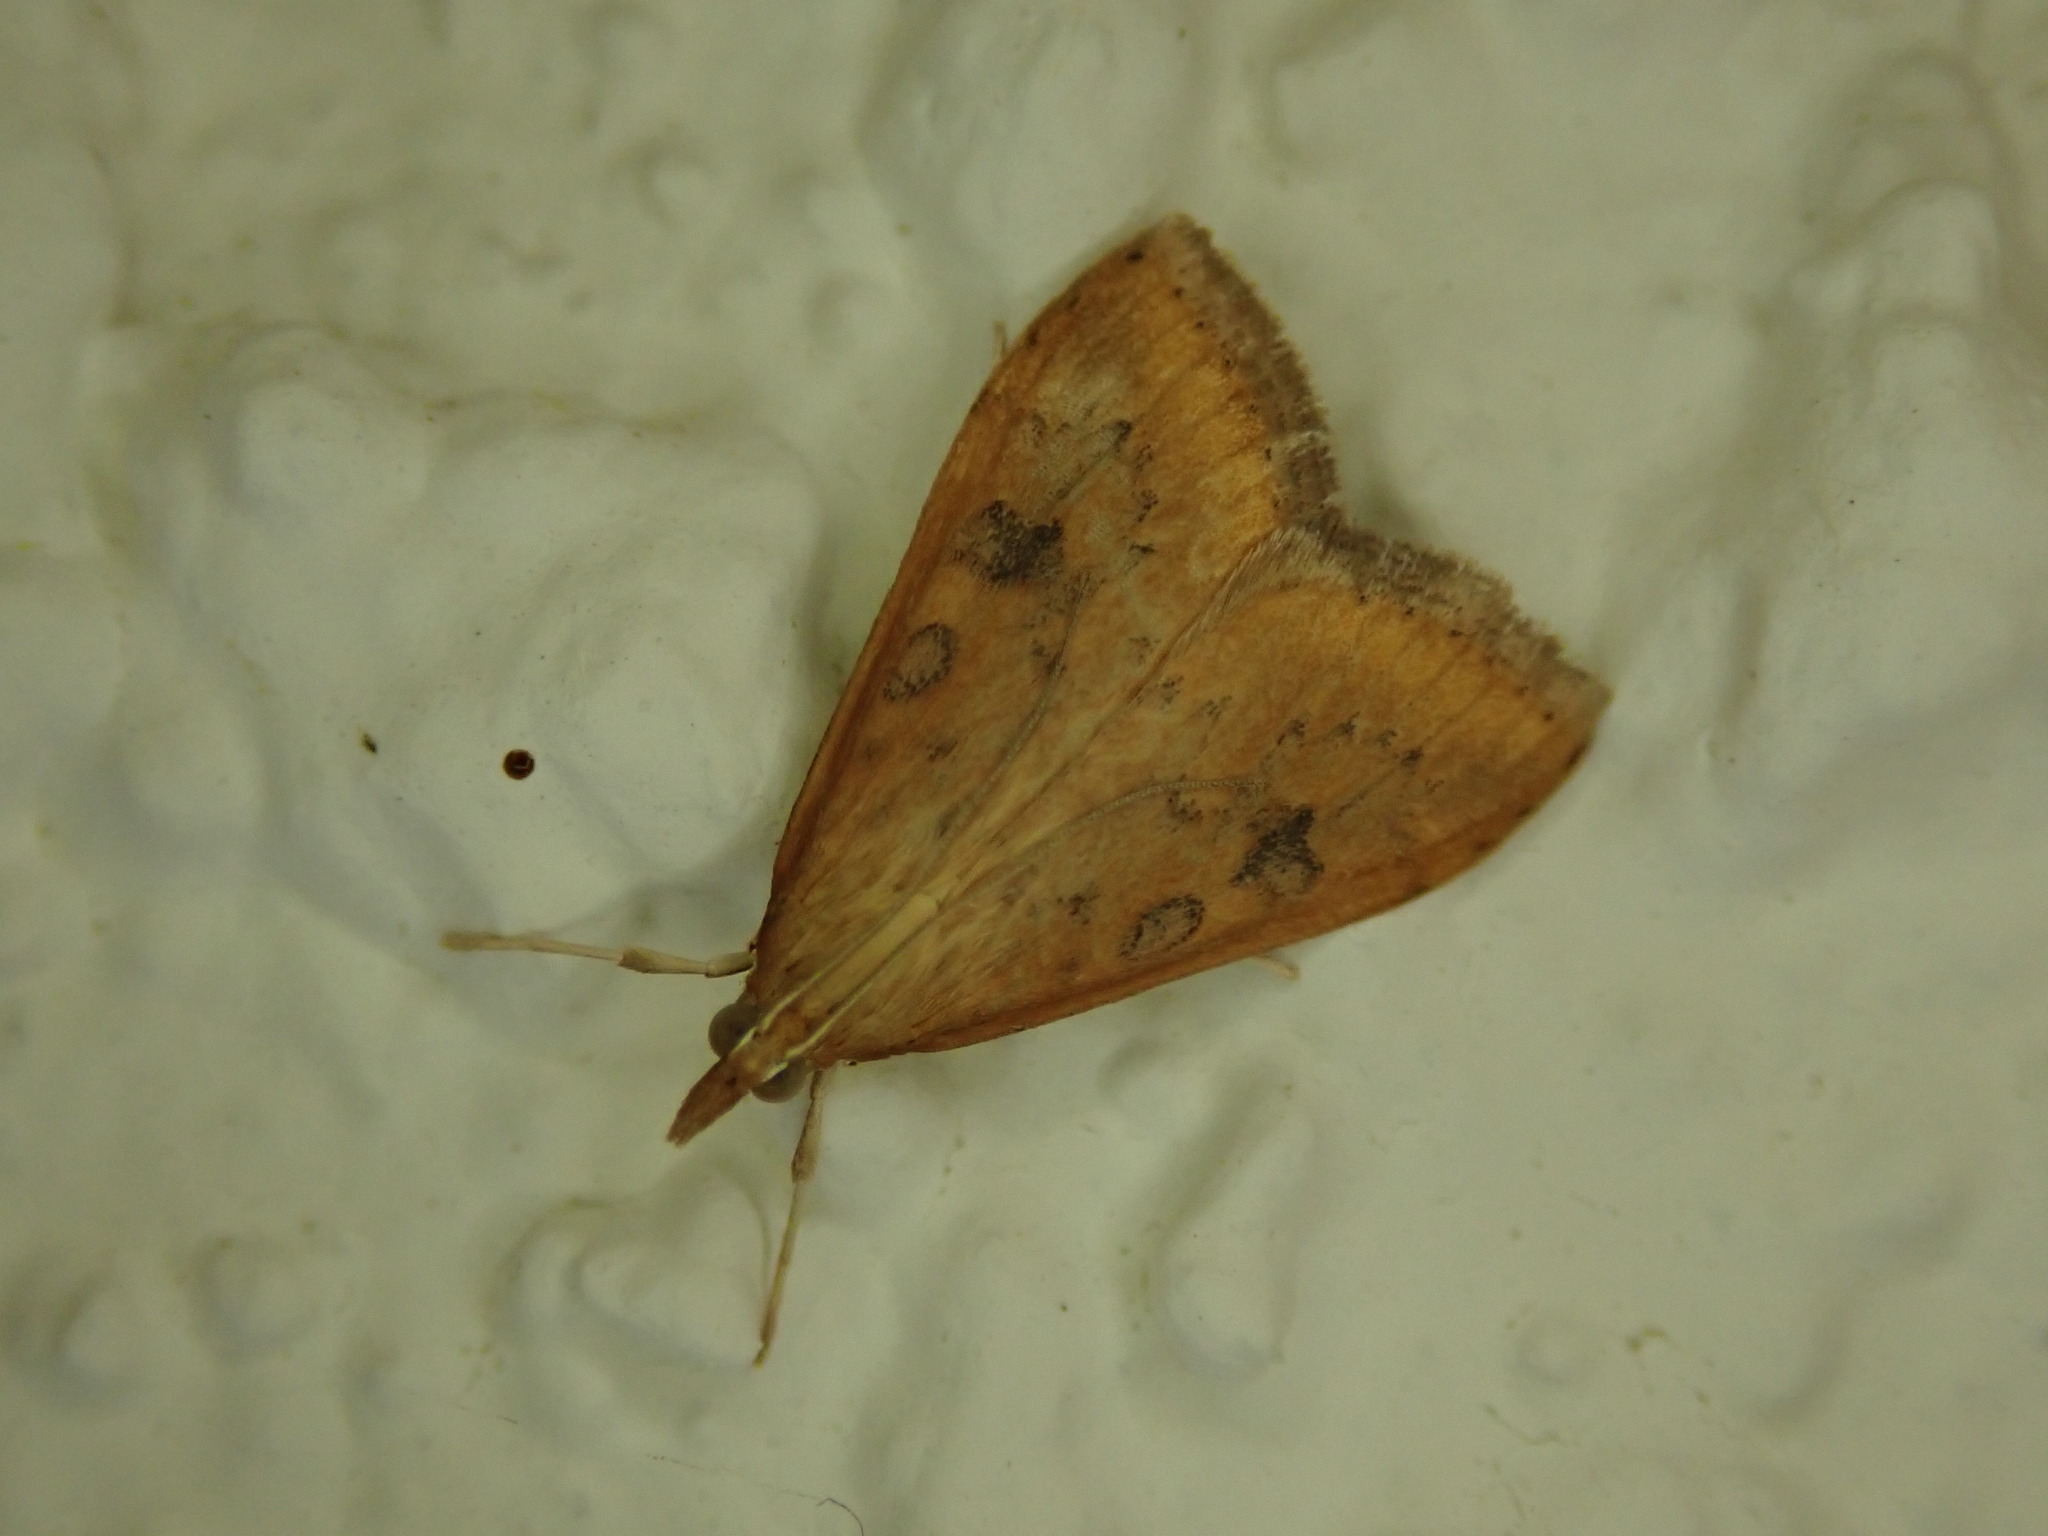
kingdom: Animalia
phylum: Arthropoda
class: Insecta
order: Lepidoptera
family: Crambidae
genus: Udea
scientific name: Udea ferrugalis
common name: Rusty dot
